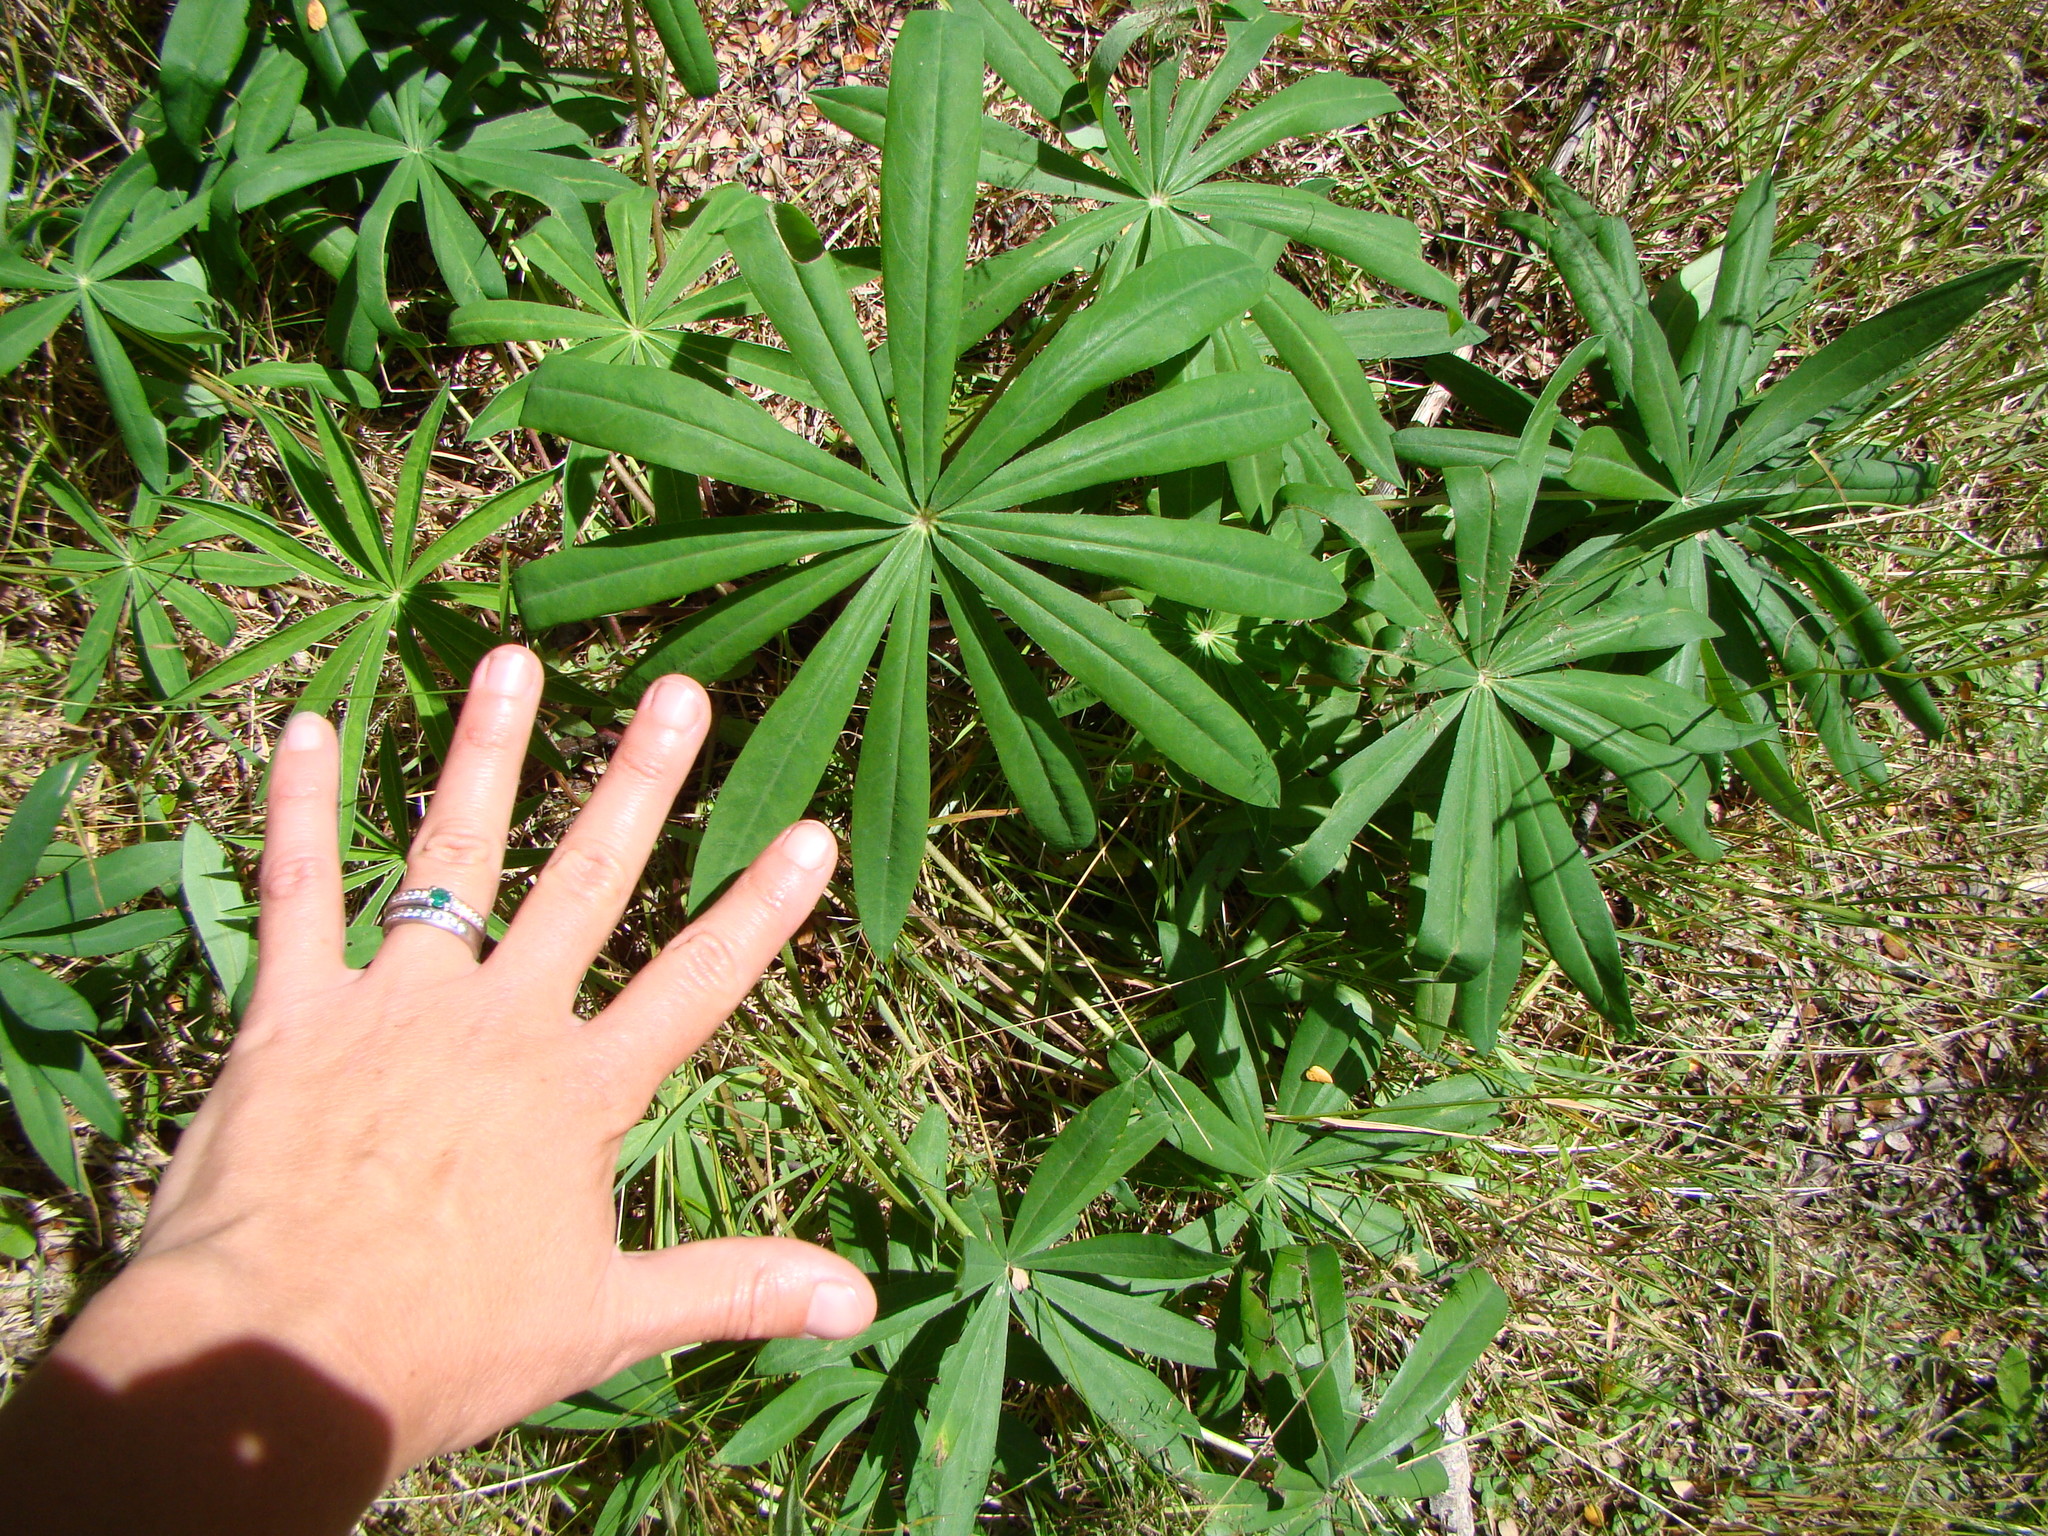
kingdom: Plantae
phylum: Tracheophyta
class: Magnoliopsida
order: Fabales
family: Fabaceae
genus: Lupinus
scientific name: Lupinus polyphyllus
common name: Garden lupin
